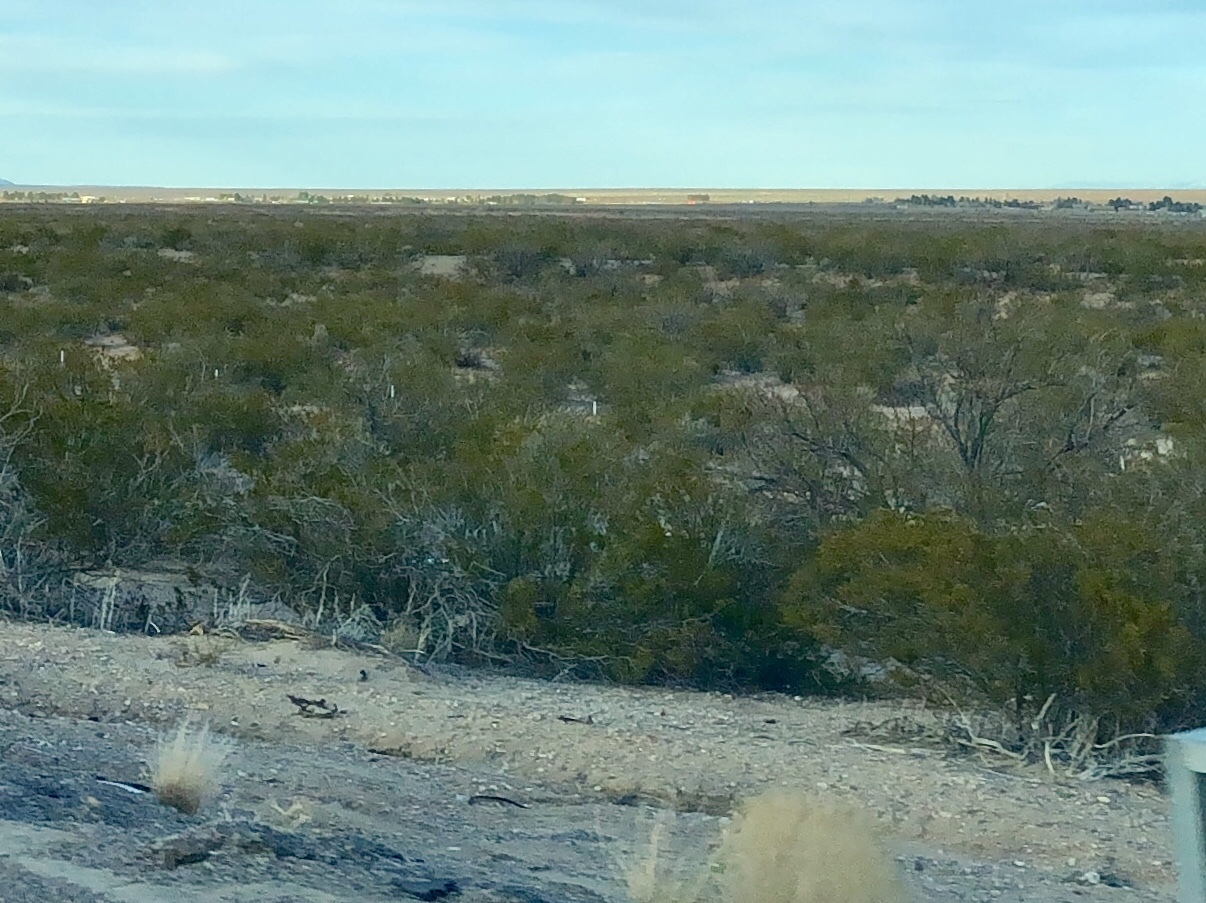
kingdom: Plantae
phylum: Tracheophyta
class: Magnoliopsida
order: Zygophyllales
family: Zygophyllaceae
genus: Larrea
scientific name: Larrea tridentata
